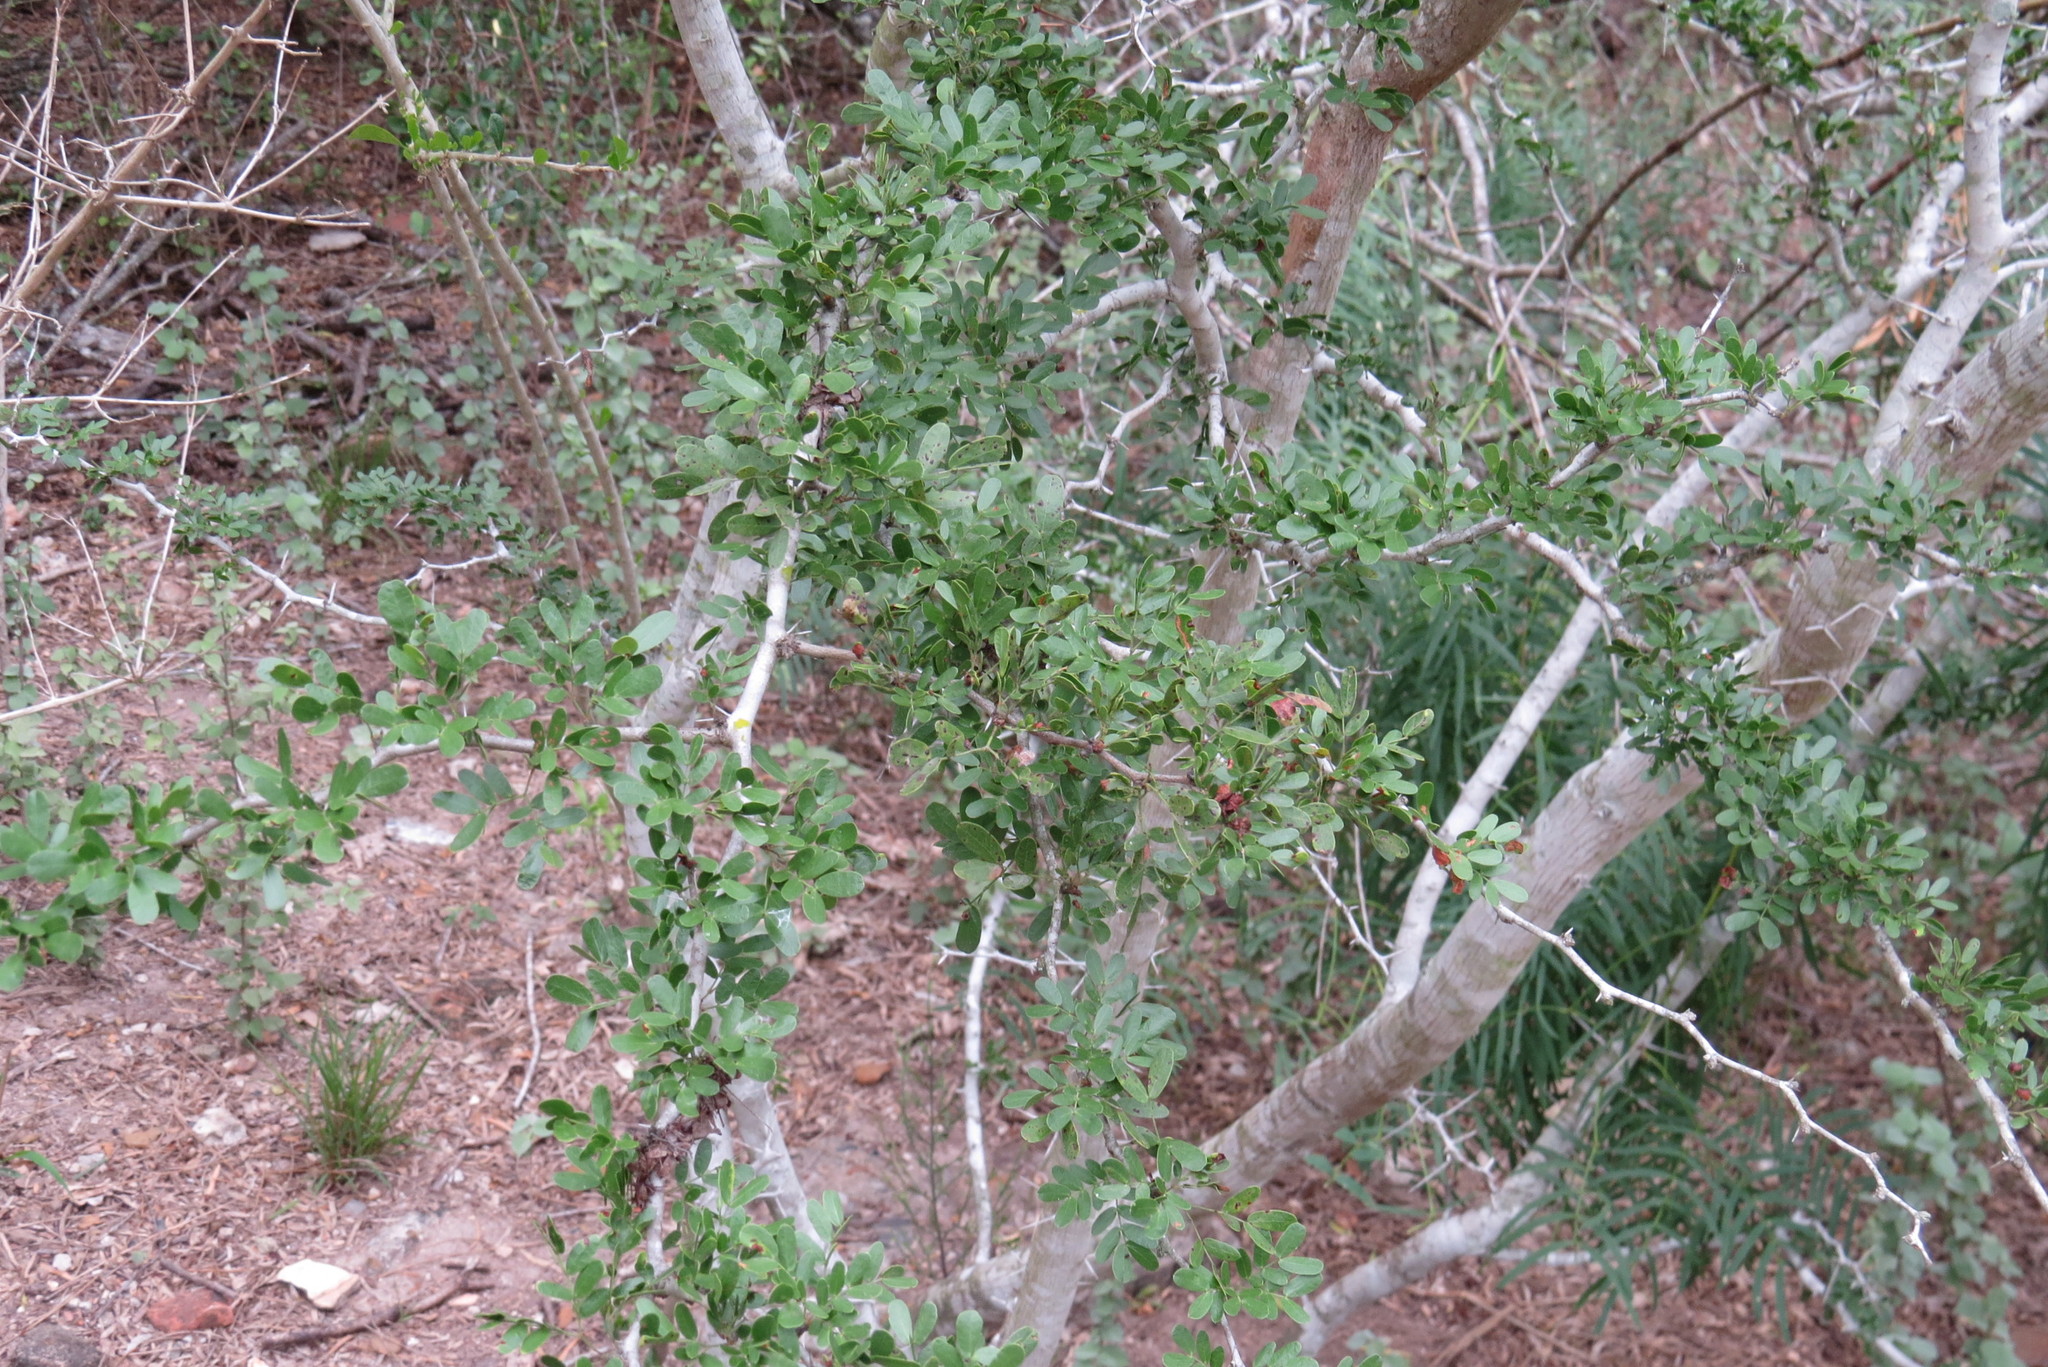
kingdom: Plantae
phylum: Tracheophyta
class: Magnoliopsida
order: Fabales
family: Fabaceae
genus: Vachellia
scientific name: Vachellia rigidula
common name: Blackbrush
